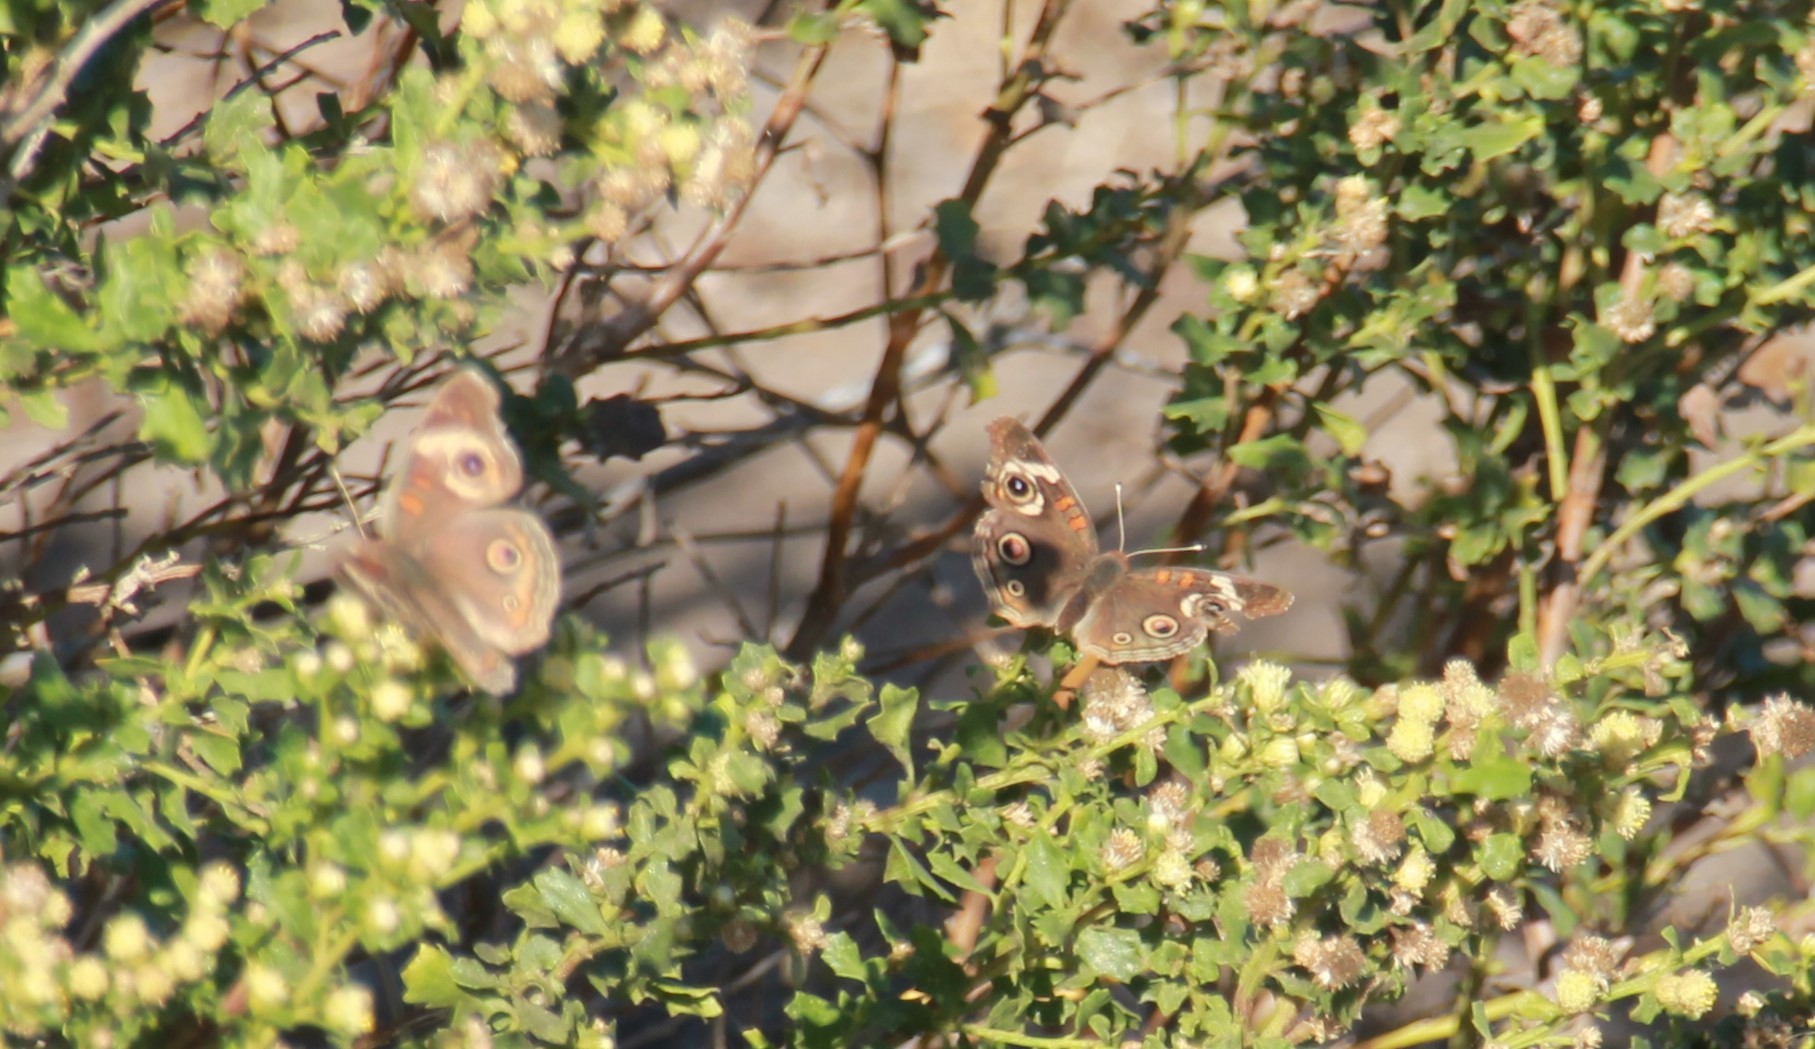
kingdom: Animalia
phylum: Arthropoda
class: Insecta
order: Lepidoptera
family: Nymphalidae
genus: Junonia
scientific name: Junonia grisea
